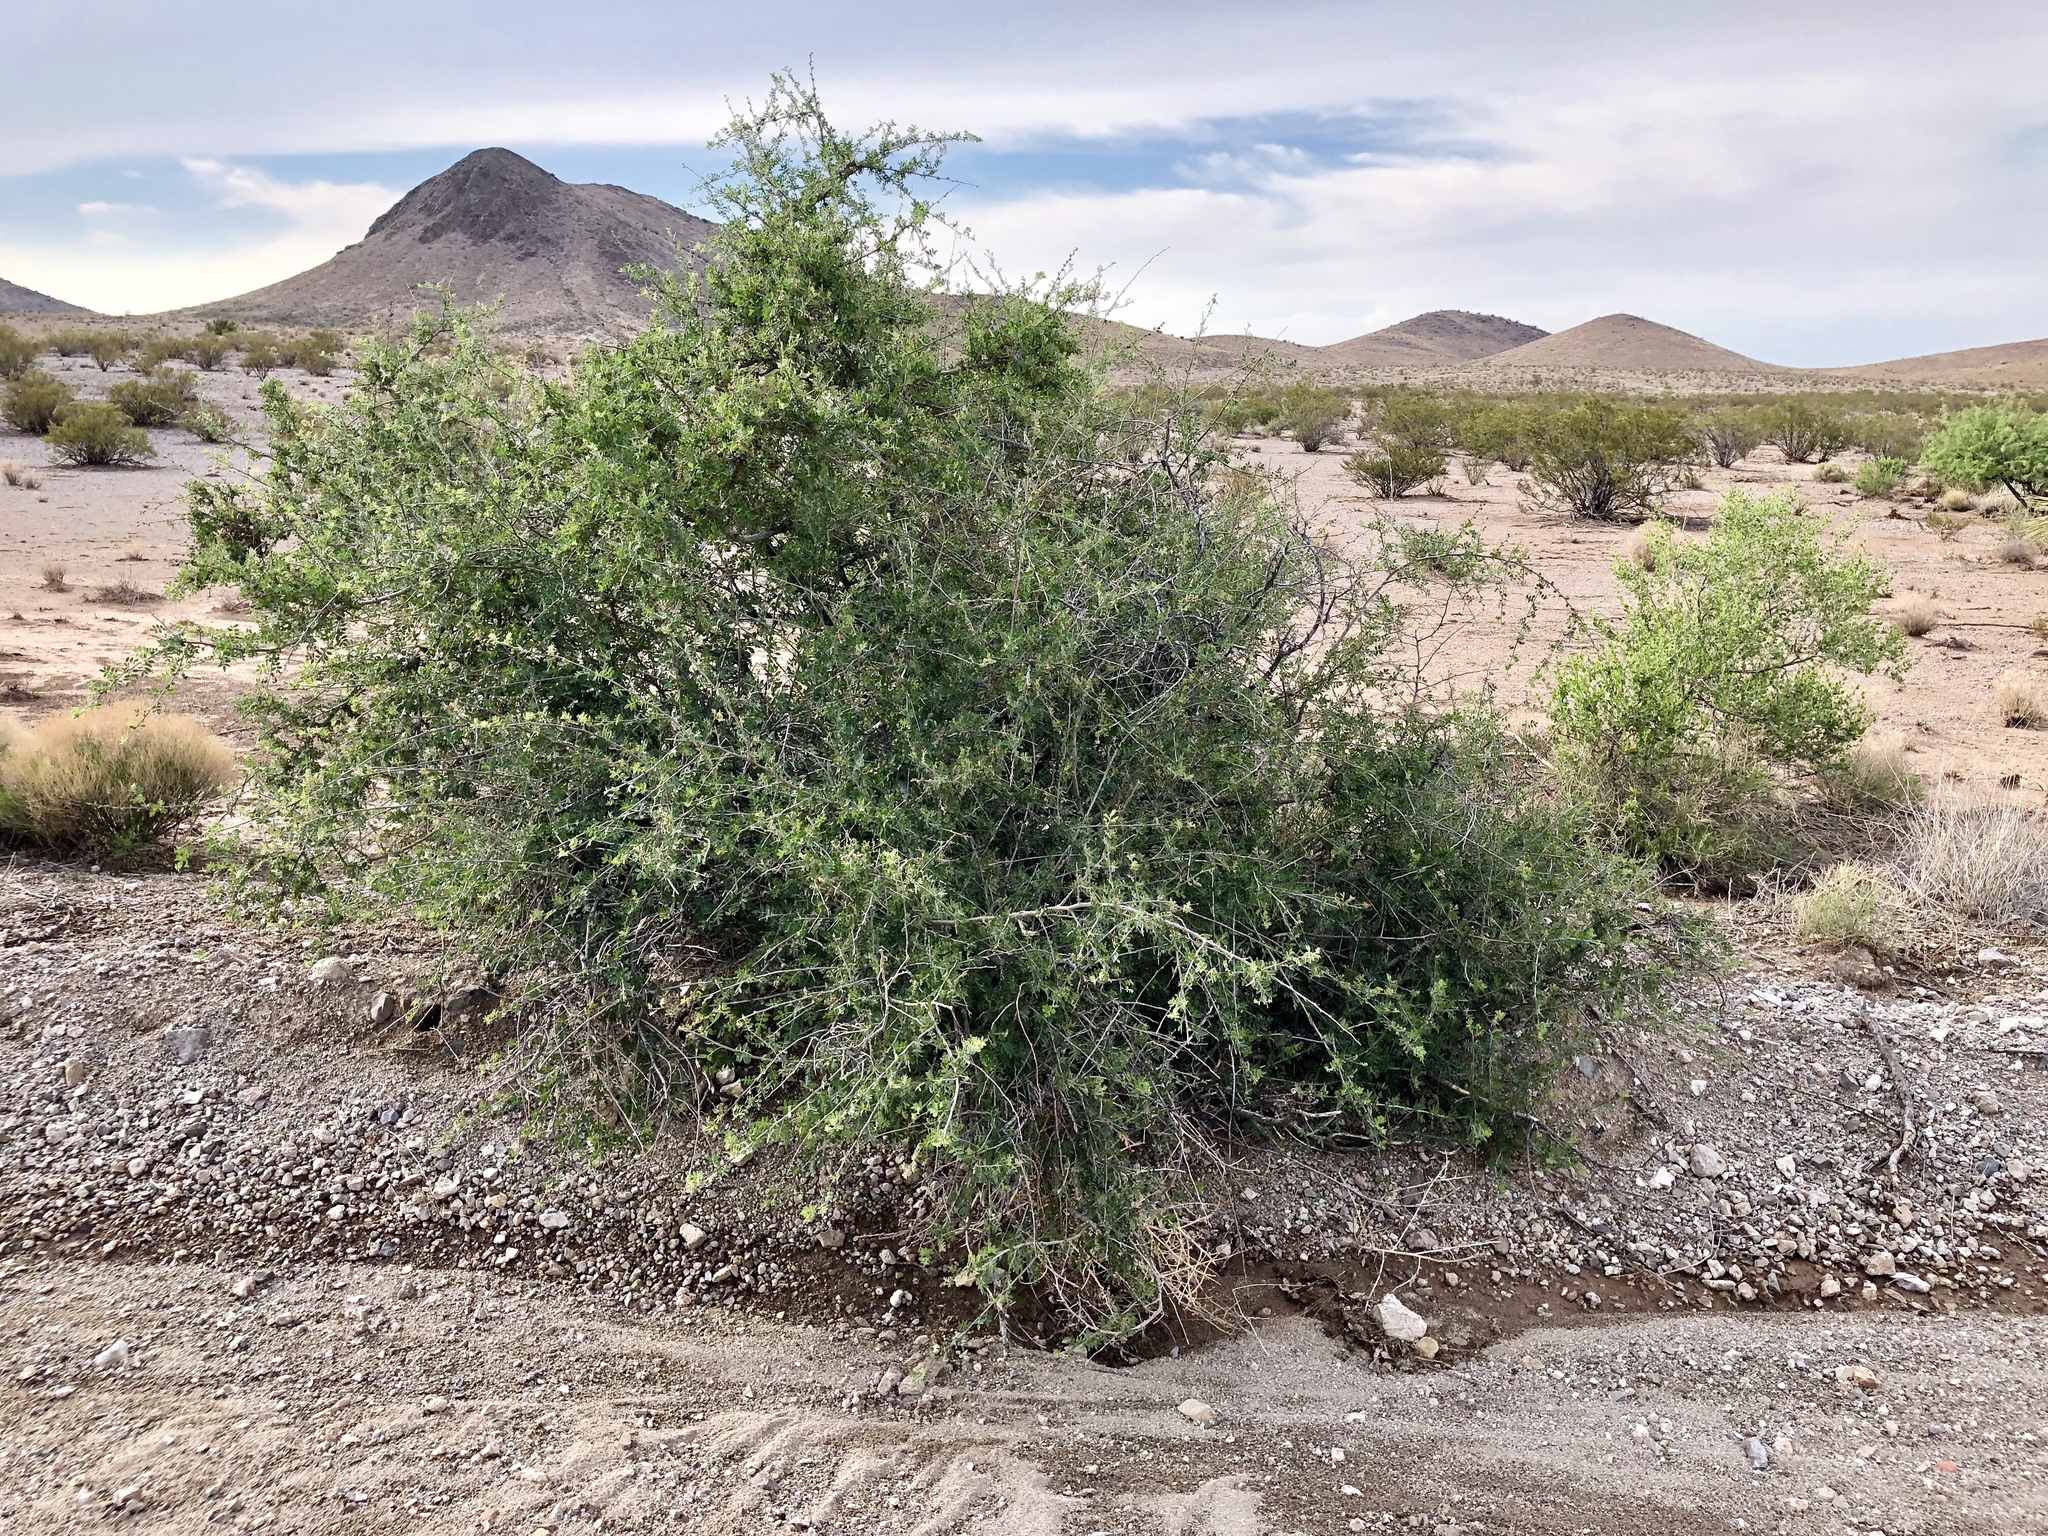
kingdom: Plantae
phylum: Tracheophyta
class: Magnoliopsida
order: Fabales
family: Fabaceae
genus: Senegalia
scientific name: Senegalia greggii
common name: Texas-mimosa
